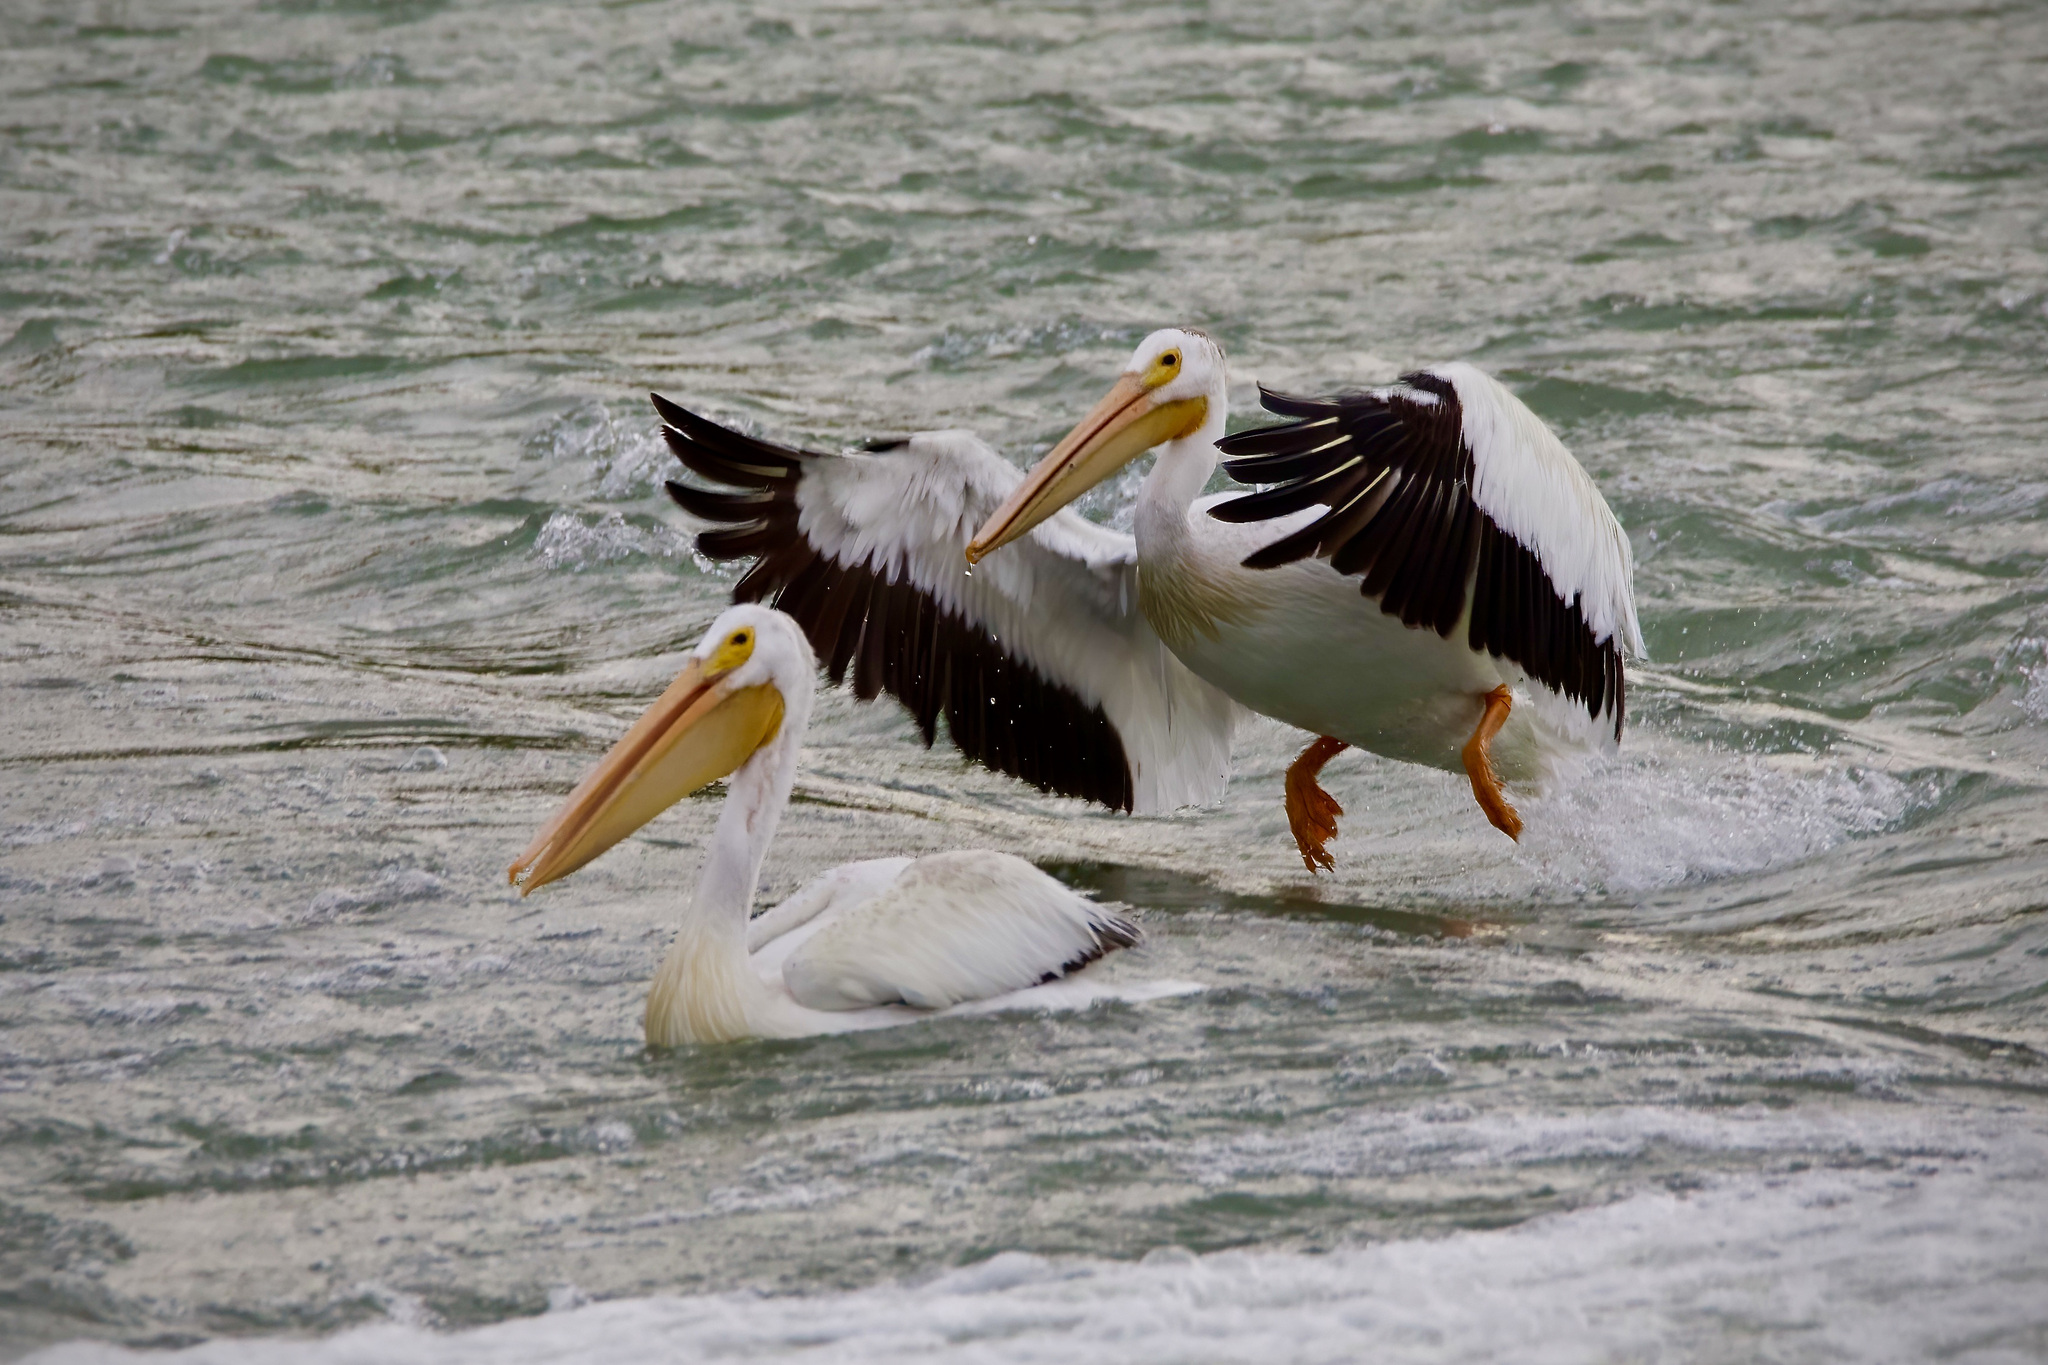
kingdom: Animalia
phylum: Chordata
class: Aves
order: Pelecaniformes
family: Pelecanidae
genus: Pelecanus
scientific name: Pelecanus erythrorhynchos
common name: American white pelican
